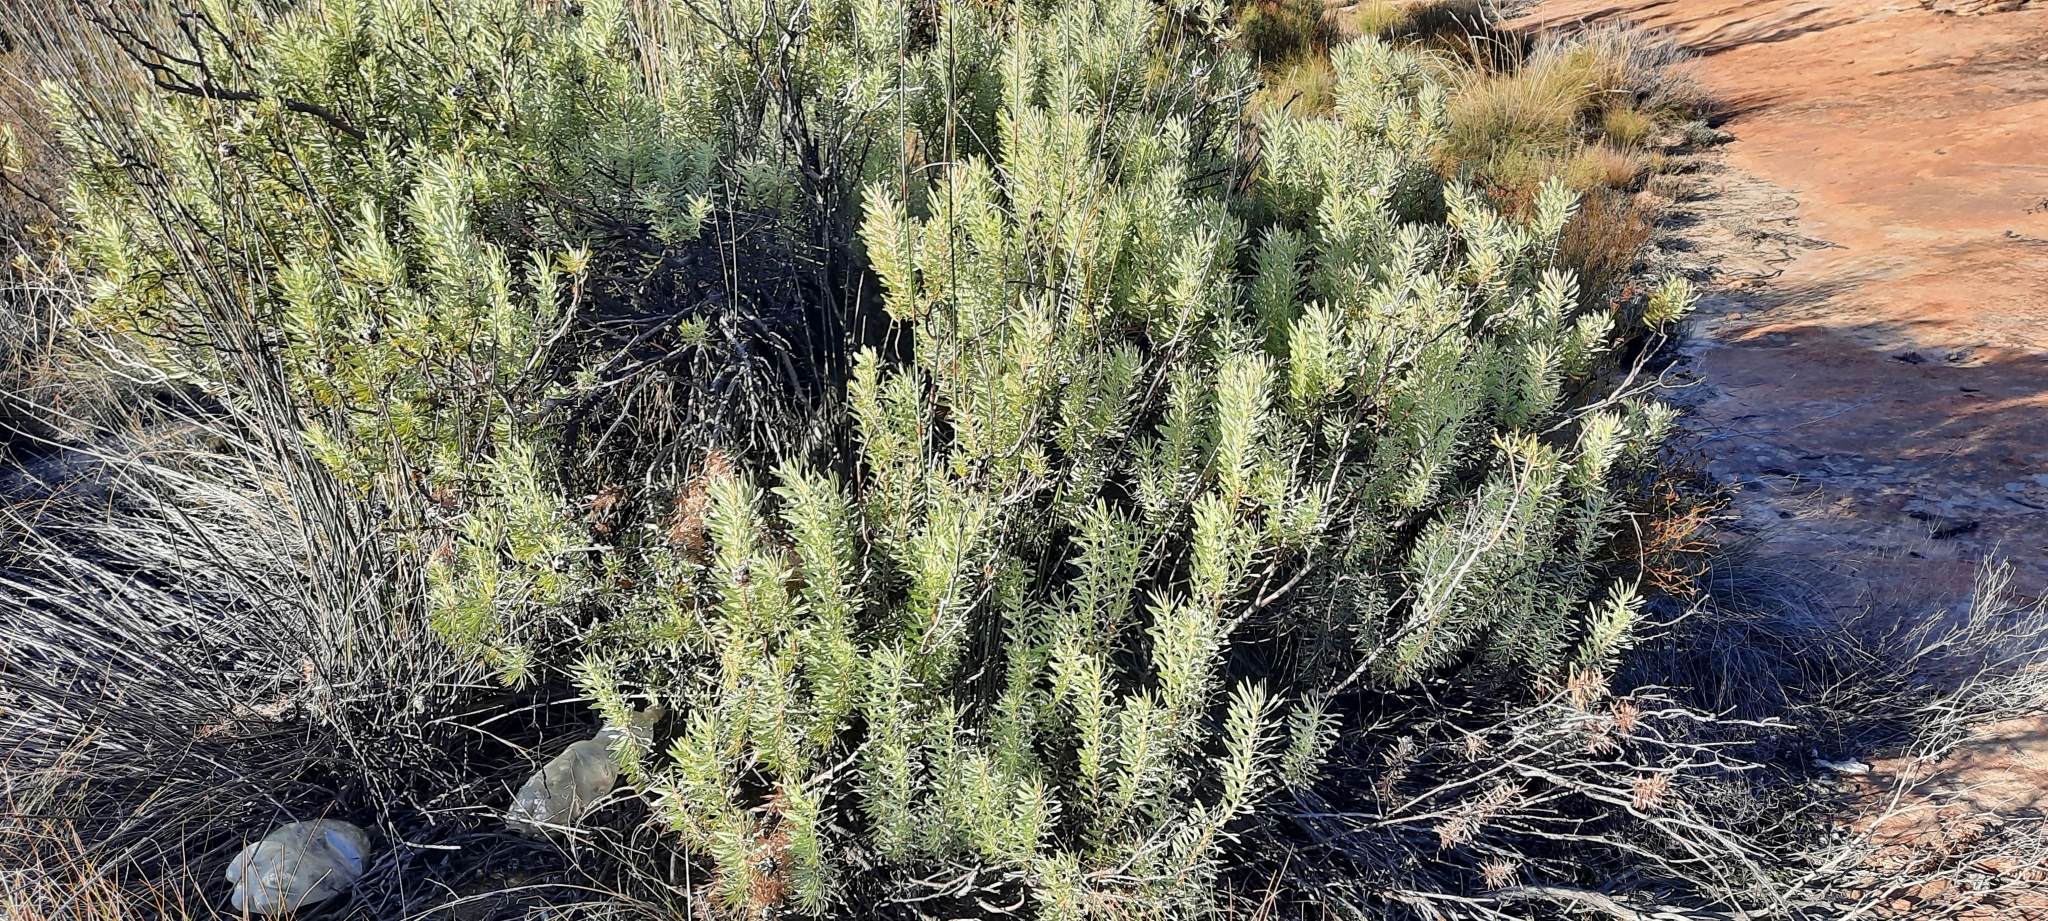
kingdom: Plantae
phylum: Tracheophyta
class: Magnoliopsida
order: Proteales
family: Proteaceae
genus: Leucadendron
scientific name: Leucadendron pubescens
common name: Grey conebush
